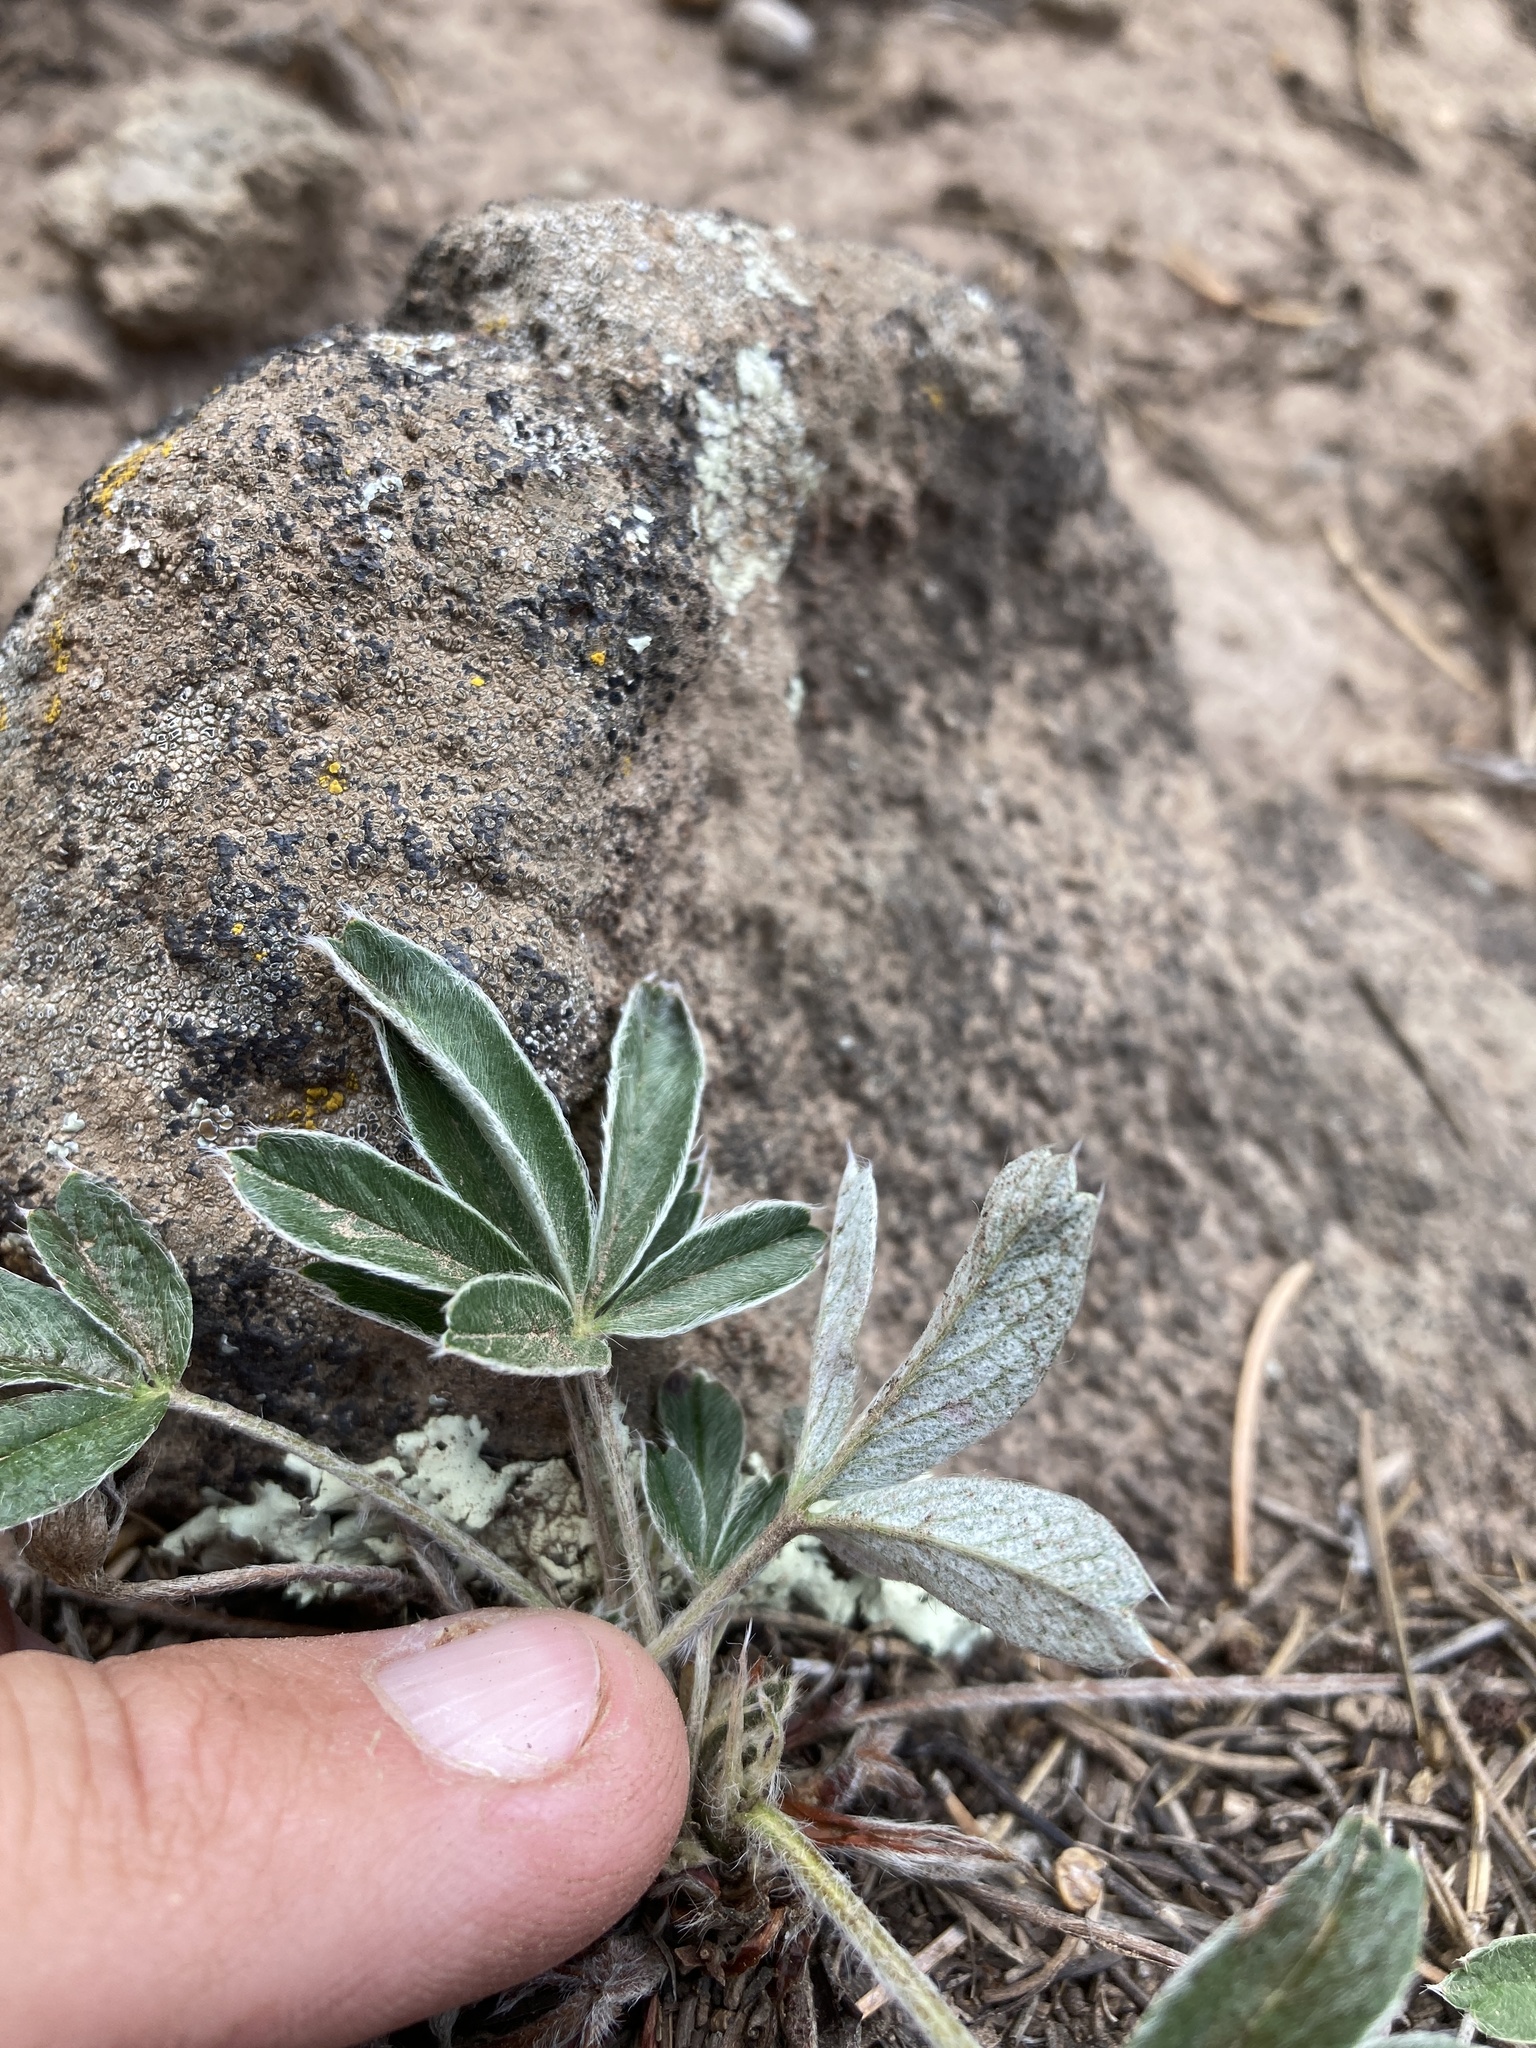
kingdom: Plantae
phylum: Tracheophyta
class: Magnoliopsida
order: Rosales
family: Rosaceae
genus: Potentilla
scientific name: Potentilla bicrenata
